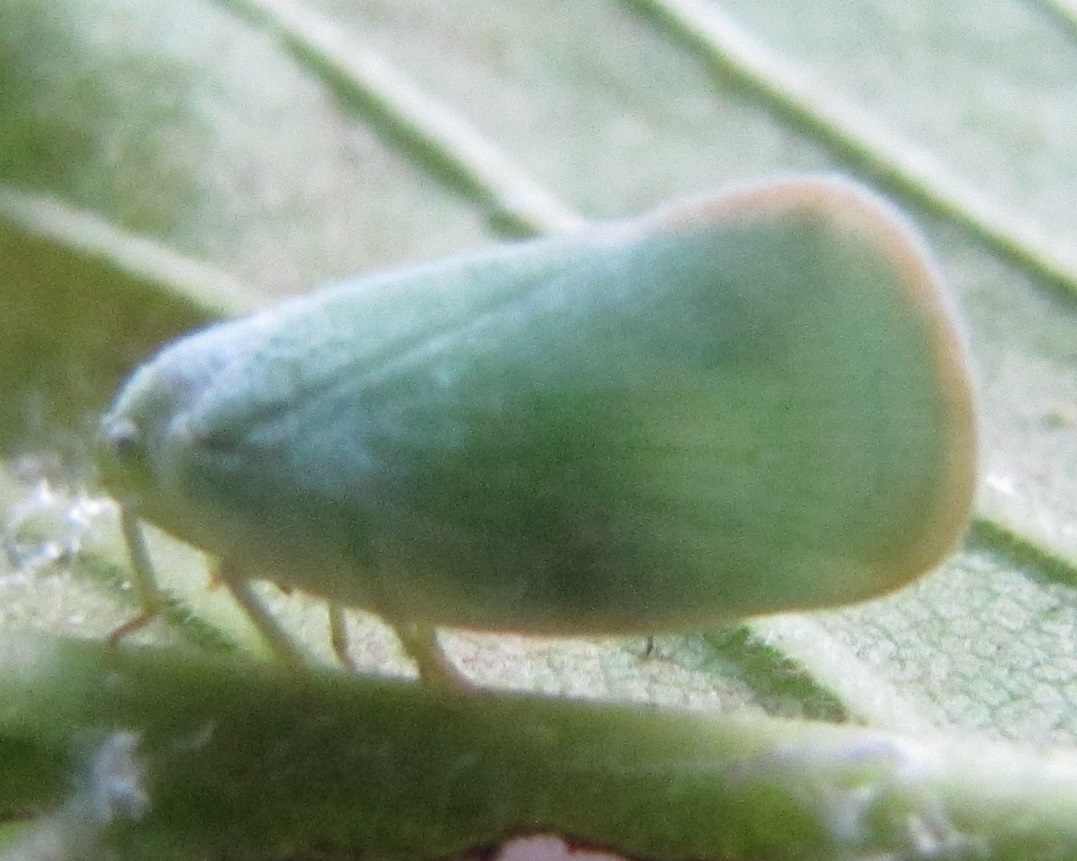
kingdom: Animalia
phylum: Arthropoda
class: Insecta
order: Hemiptera
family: Flatidae
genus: Ormenoides
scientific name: Ormenoides venusta
